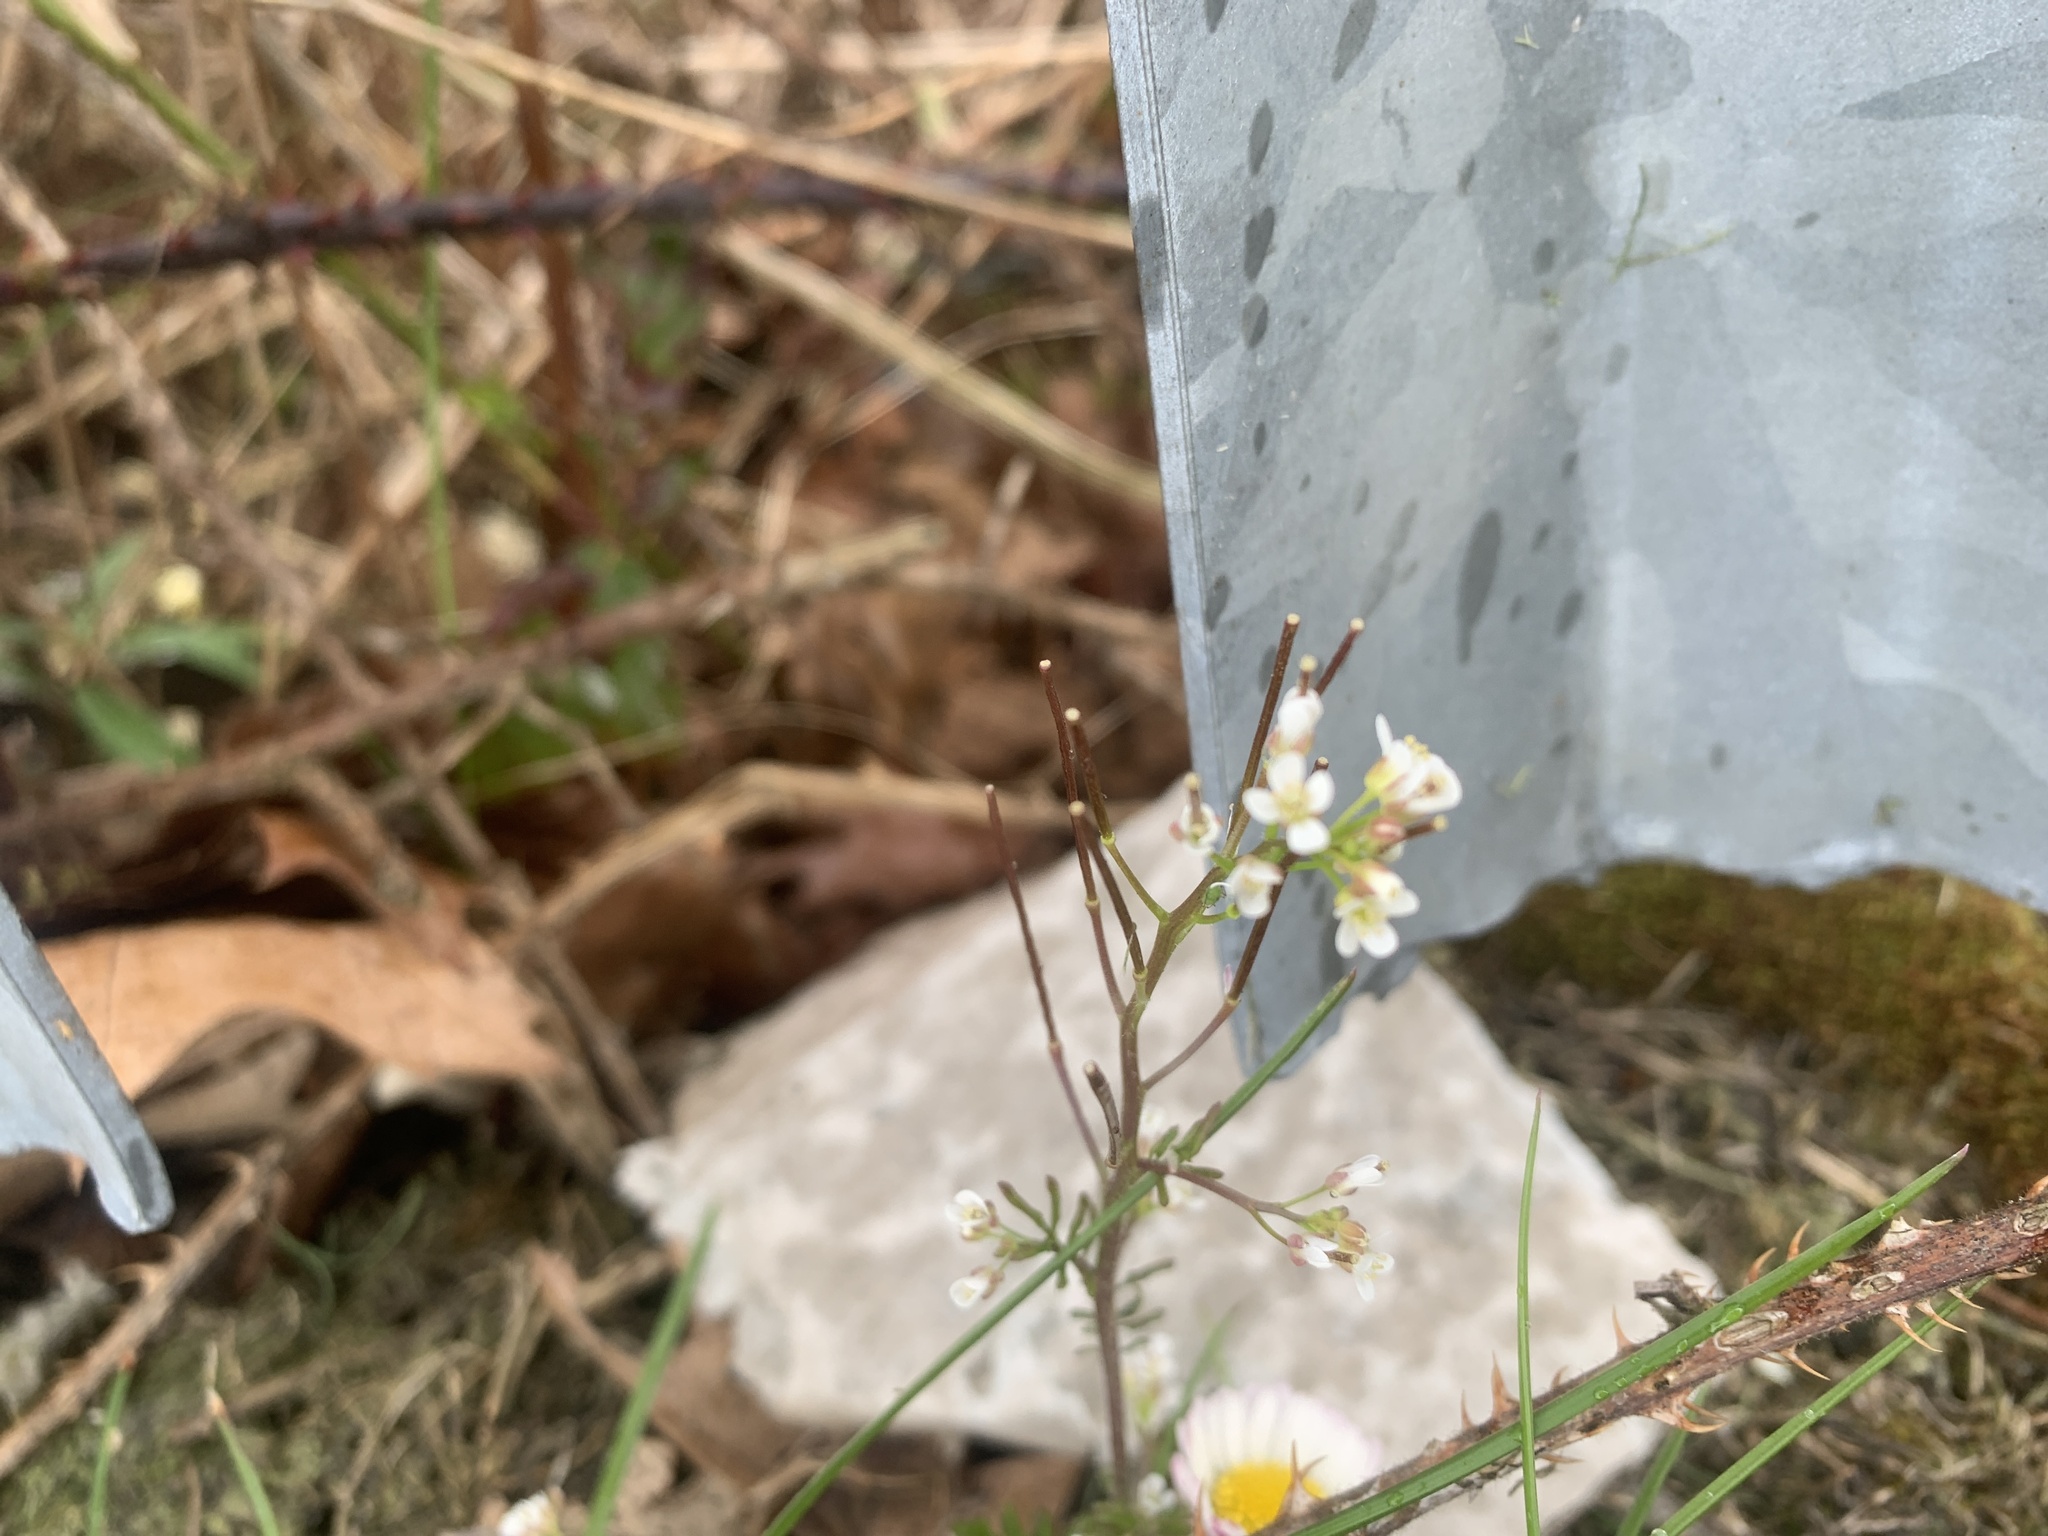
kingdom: Plantae
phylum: Tracheophyta
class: Magnoliopsida
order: Brassicales
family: Brassicaceae
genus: Cardamine
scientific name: Cardamine flexuosa
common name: Woodland bittercress
